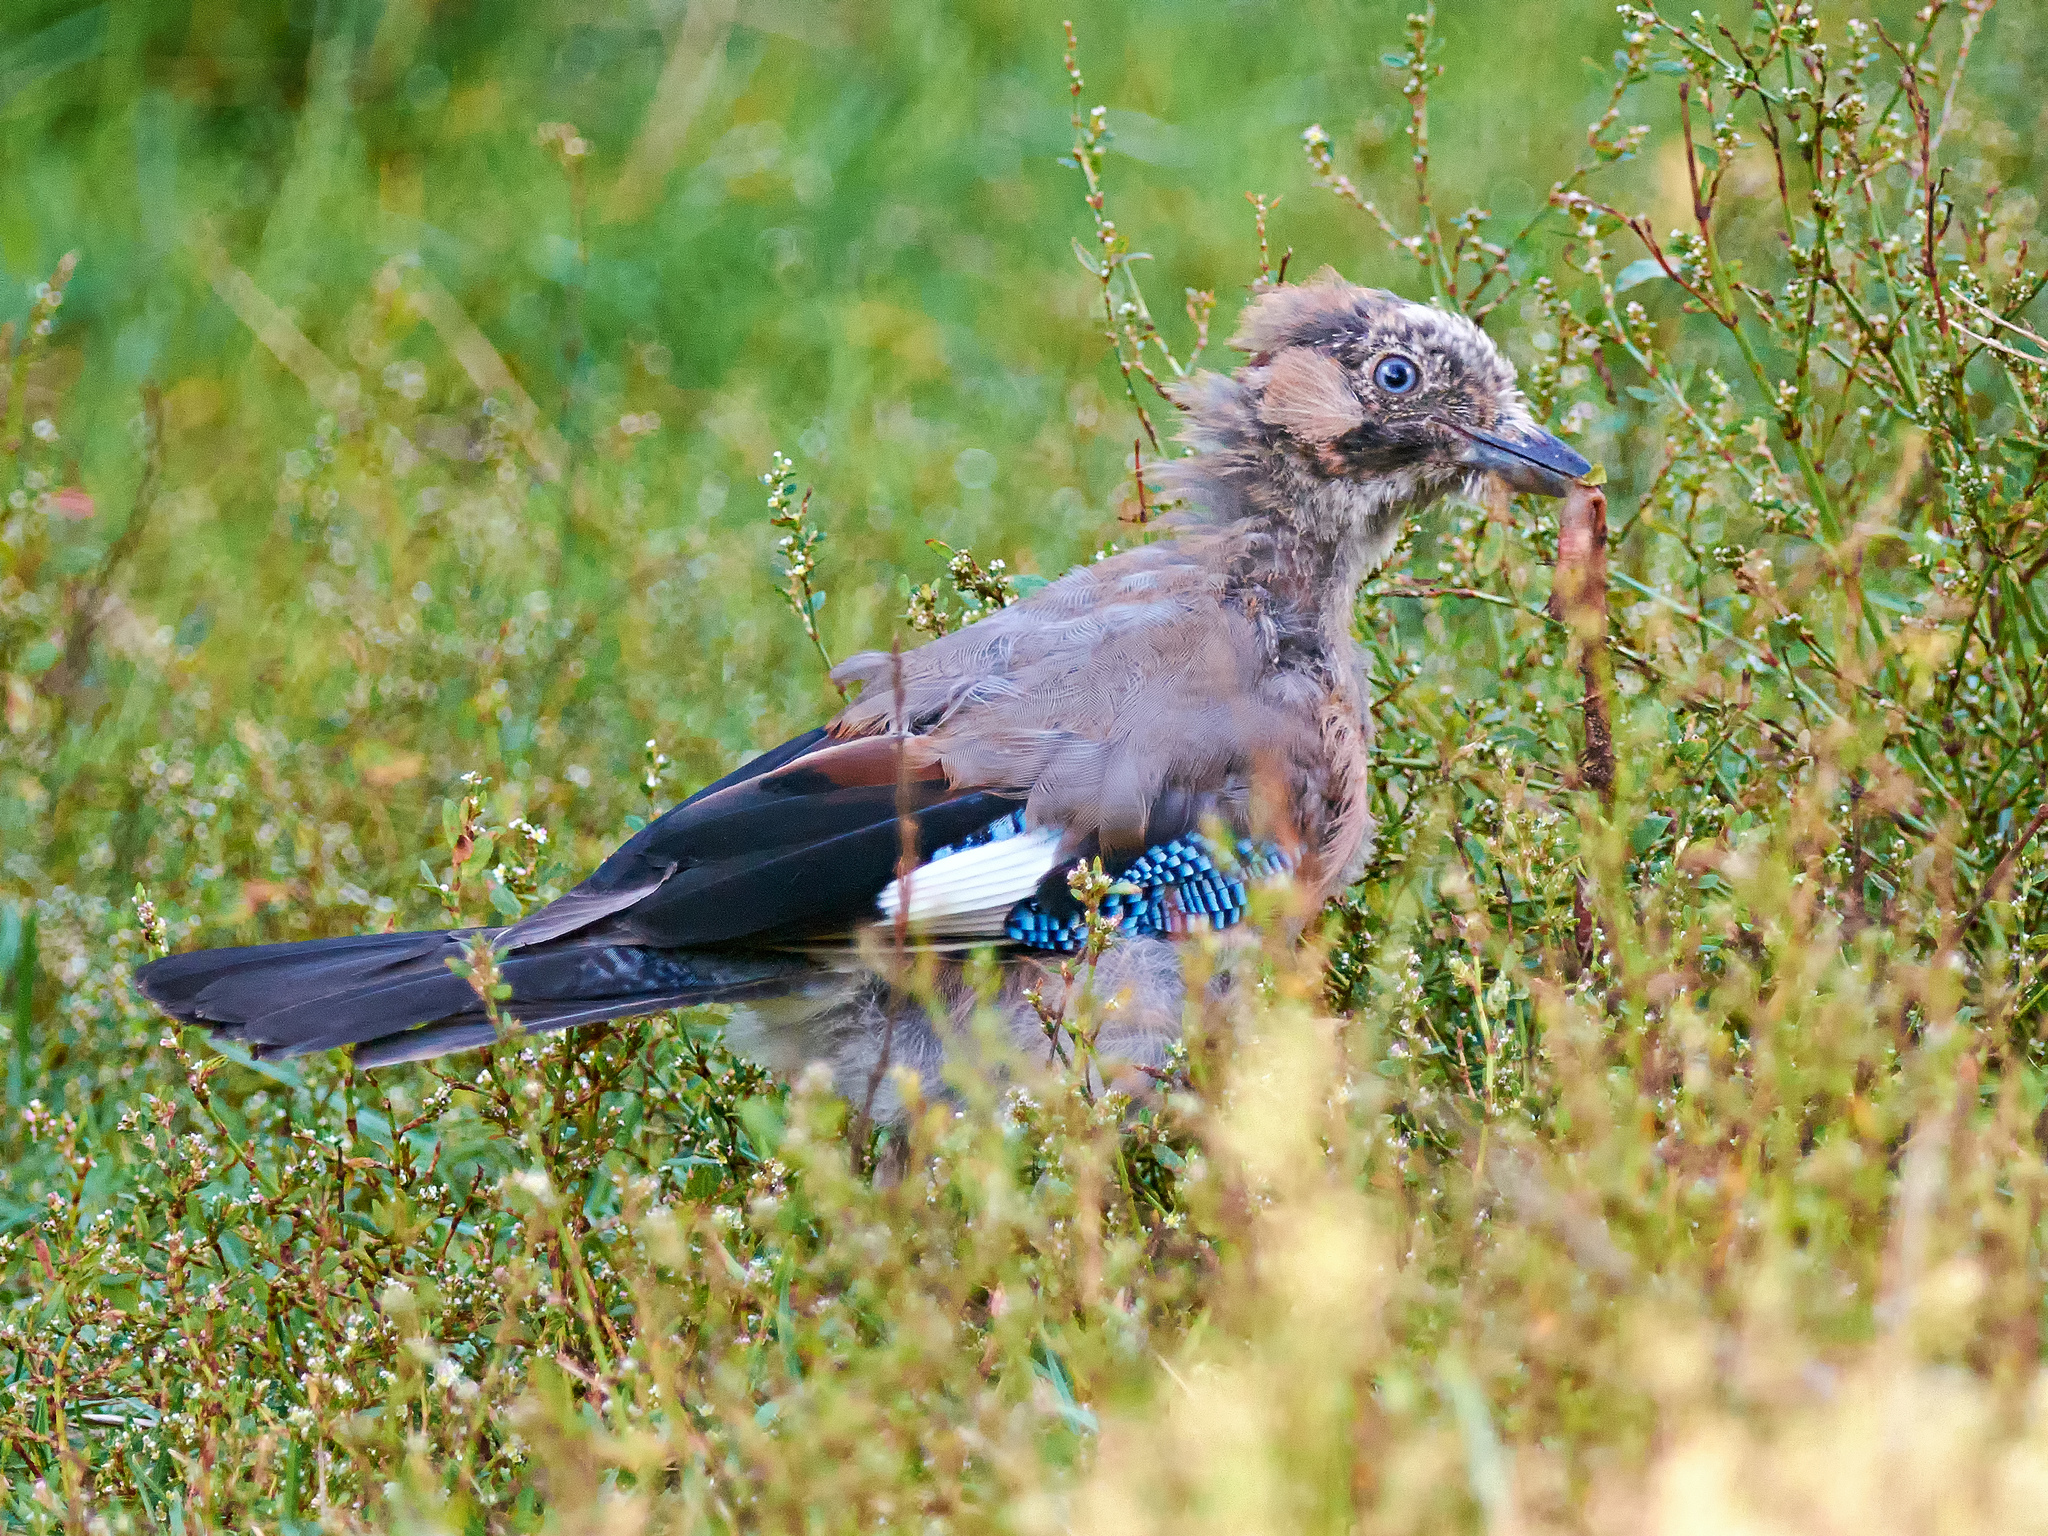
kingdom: Animalia
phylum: Chordata
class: Aves
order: Passeriformes
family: Corvidae
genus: Garrulus
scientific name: Garrulus glandarius
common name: Eurasian jay
